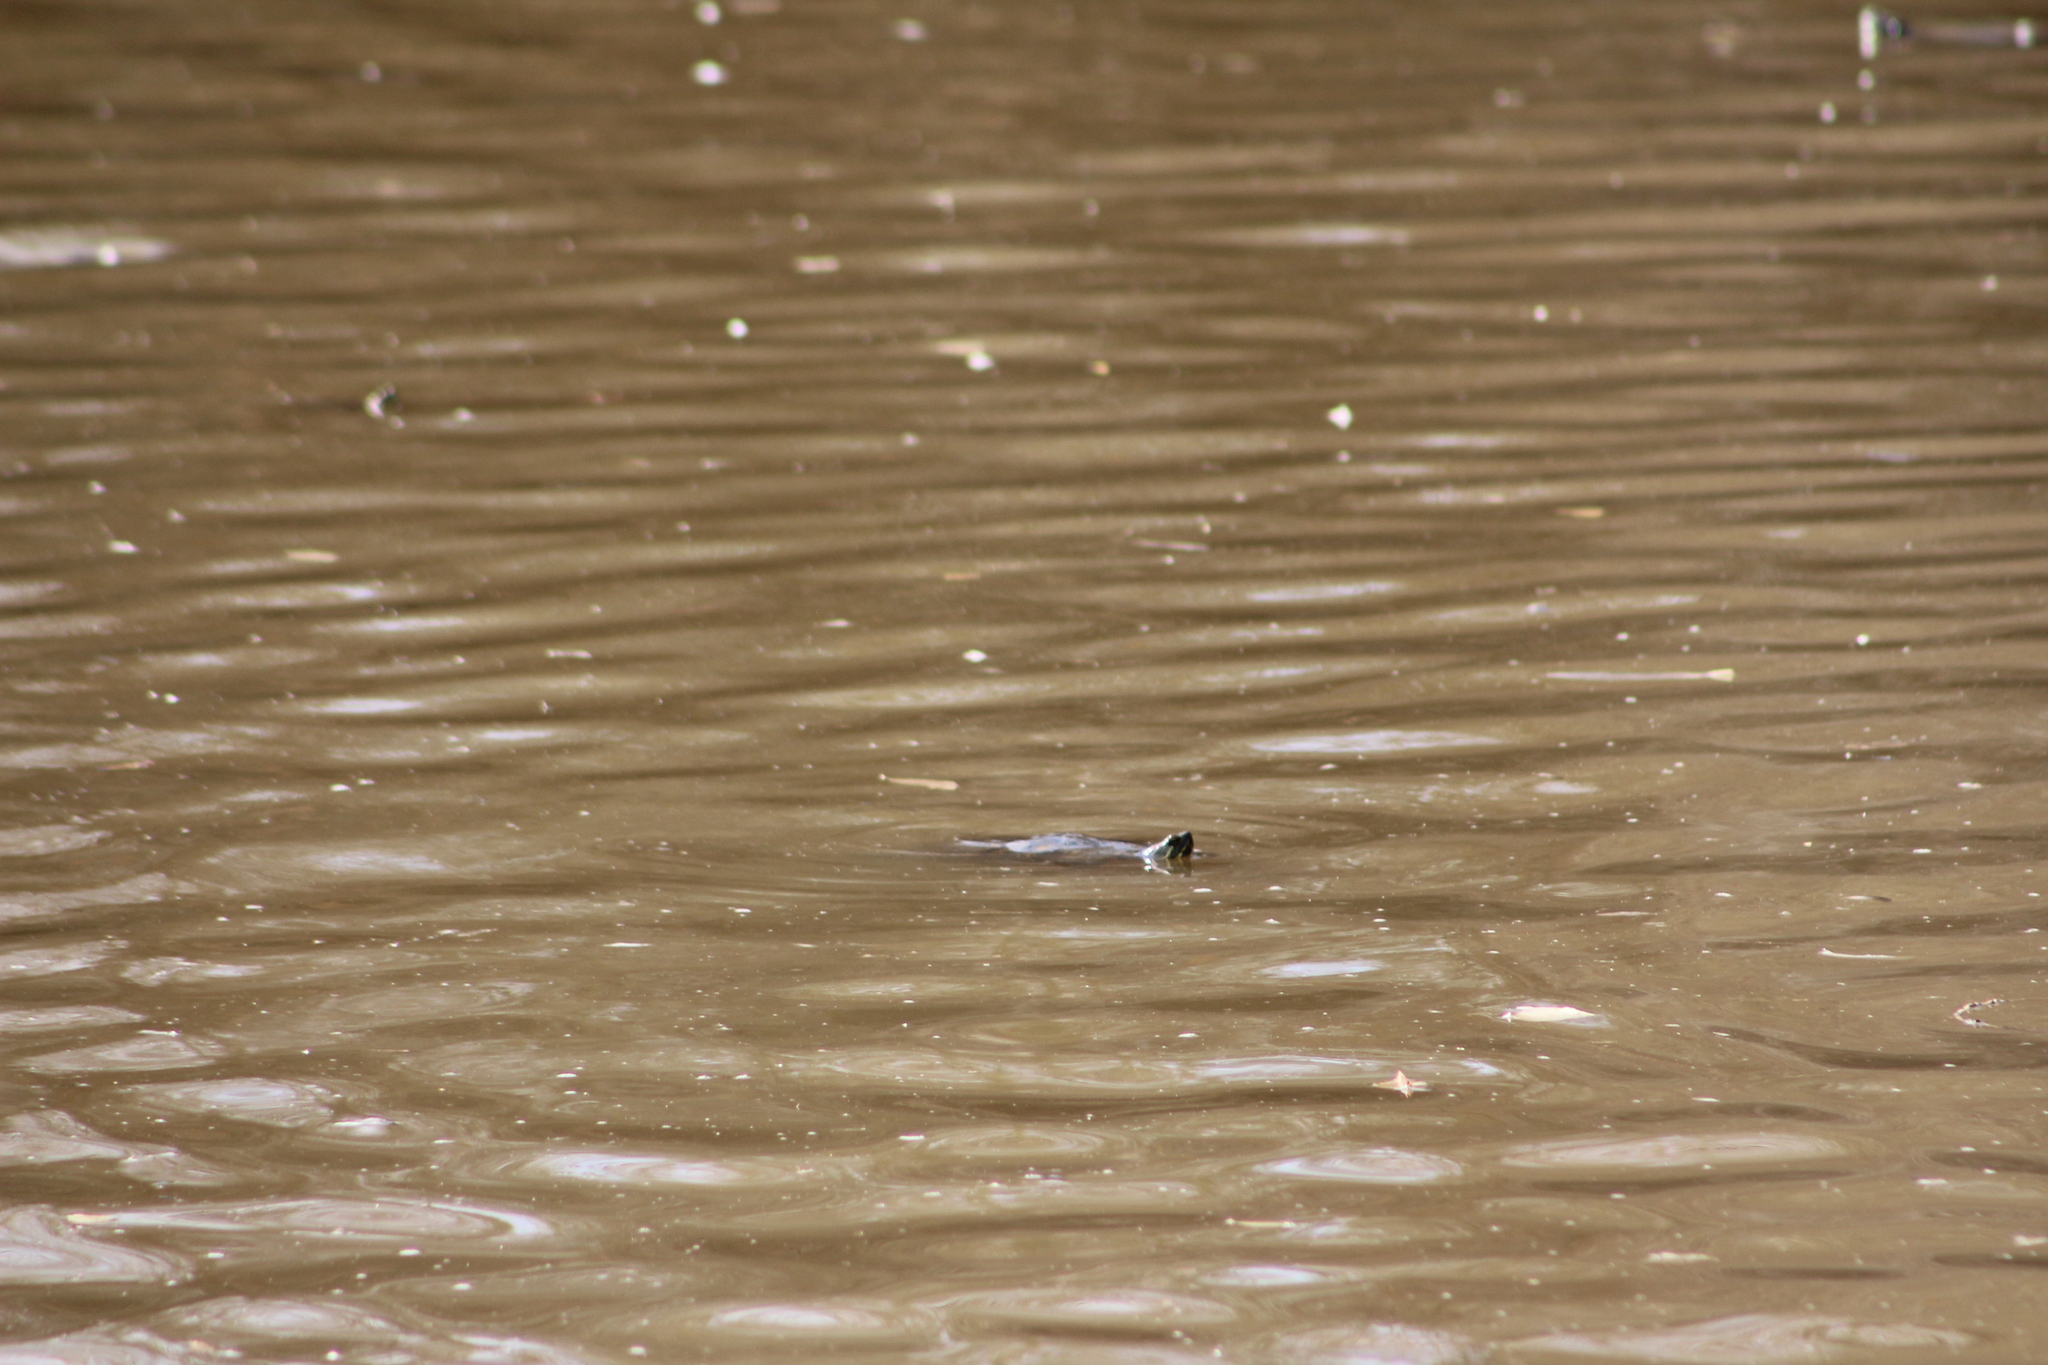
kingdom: Animalia
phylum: Chordata
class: Testudines
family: Emydidae
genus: Trachemys
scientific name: Trachemys scripta
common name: Slider
